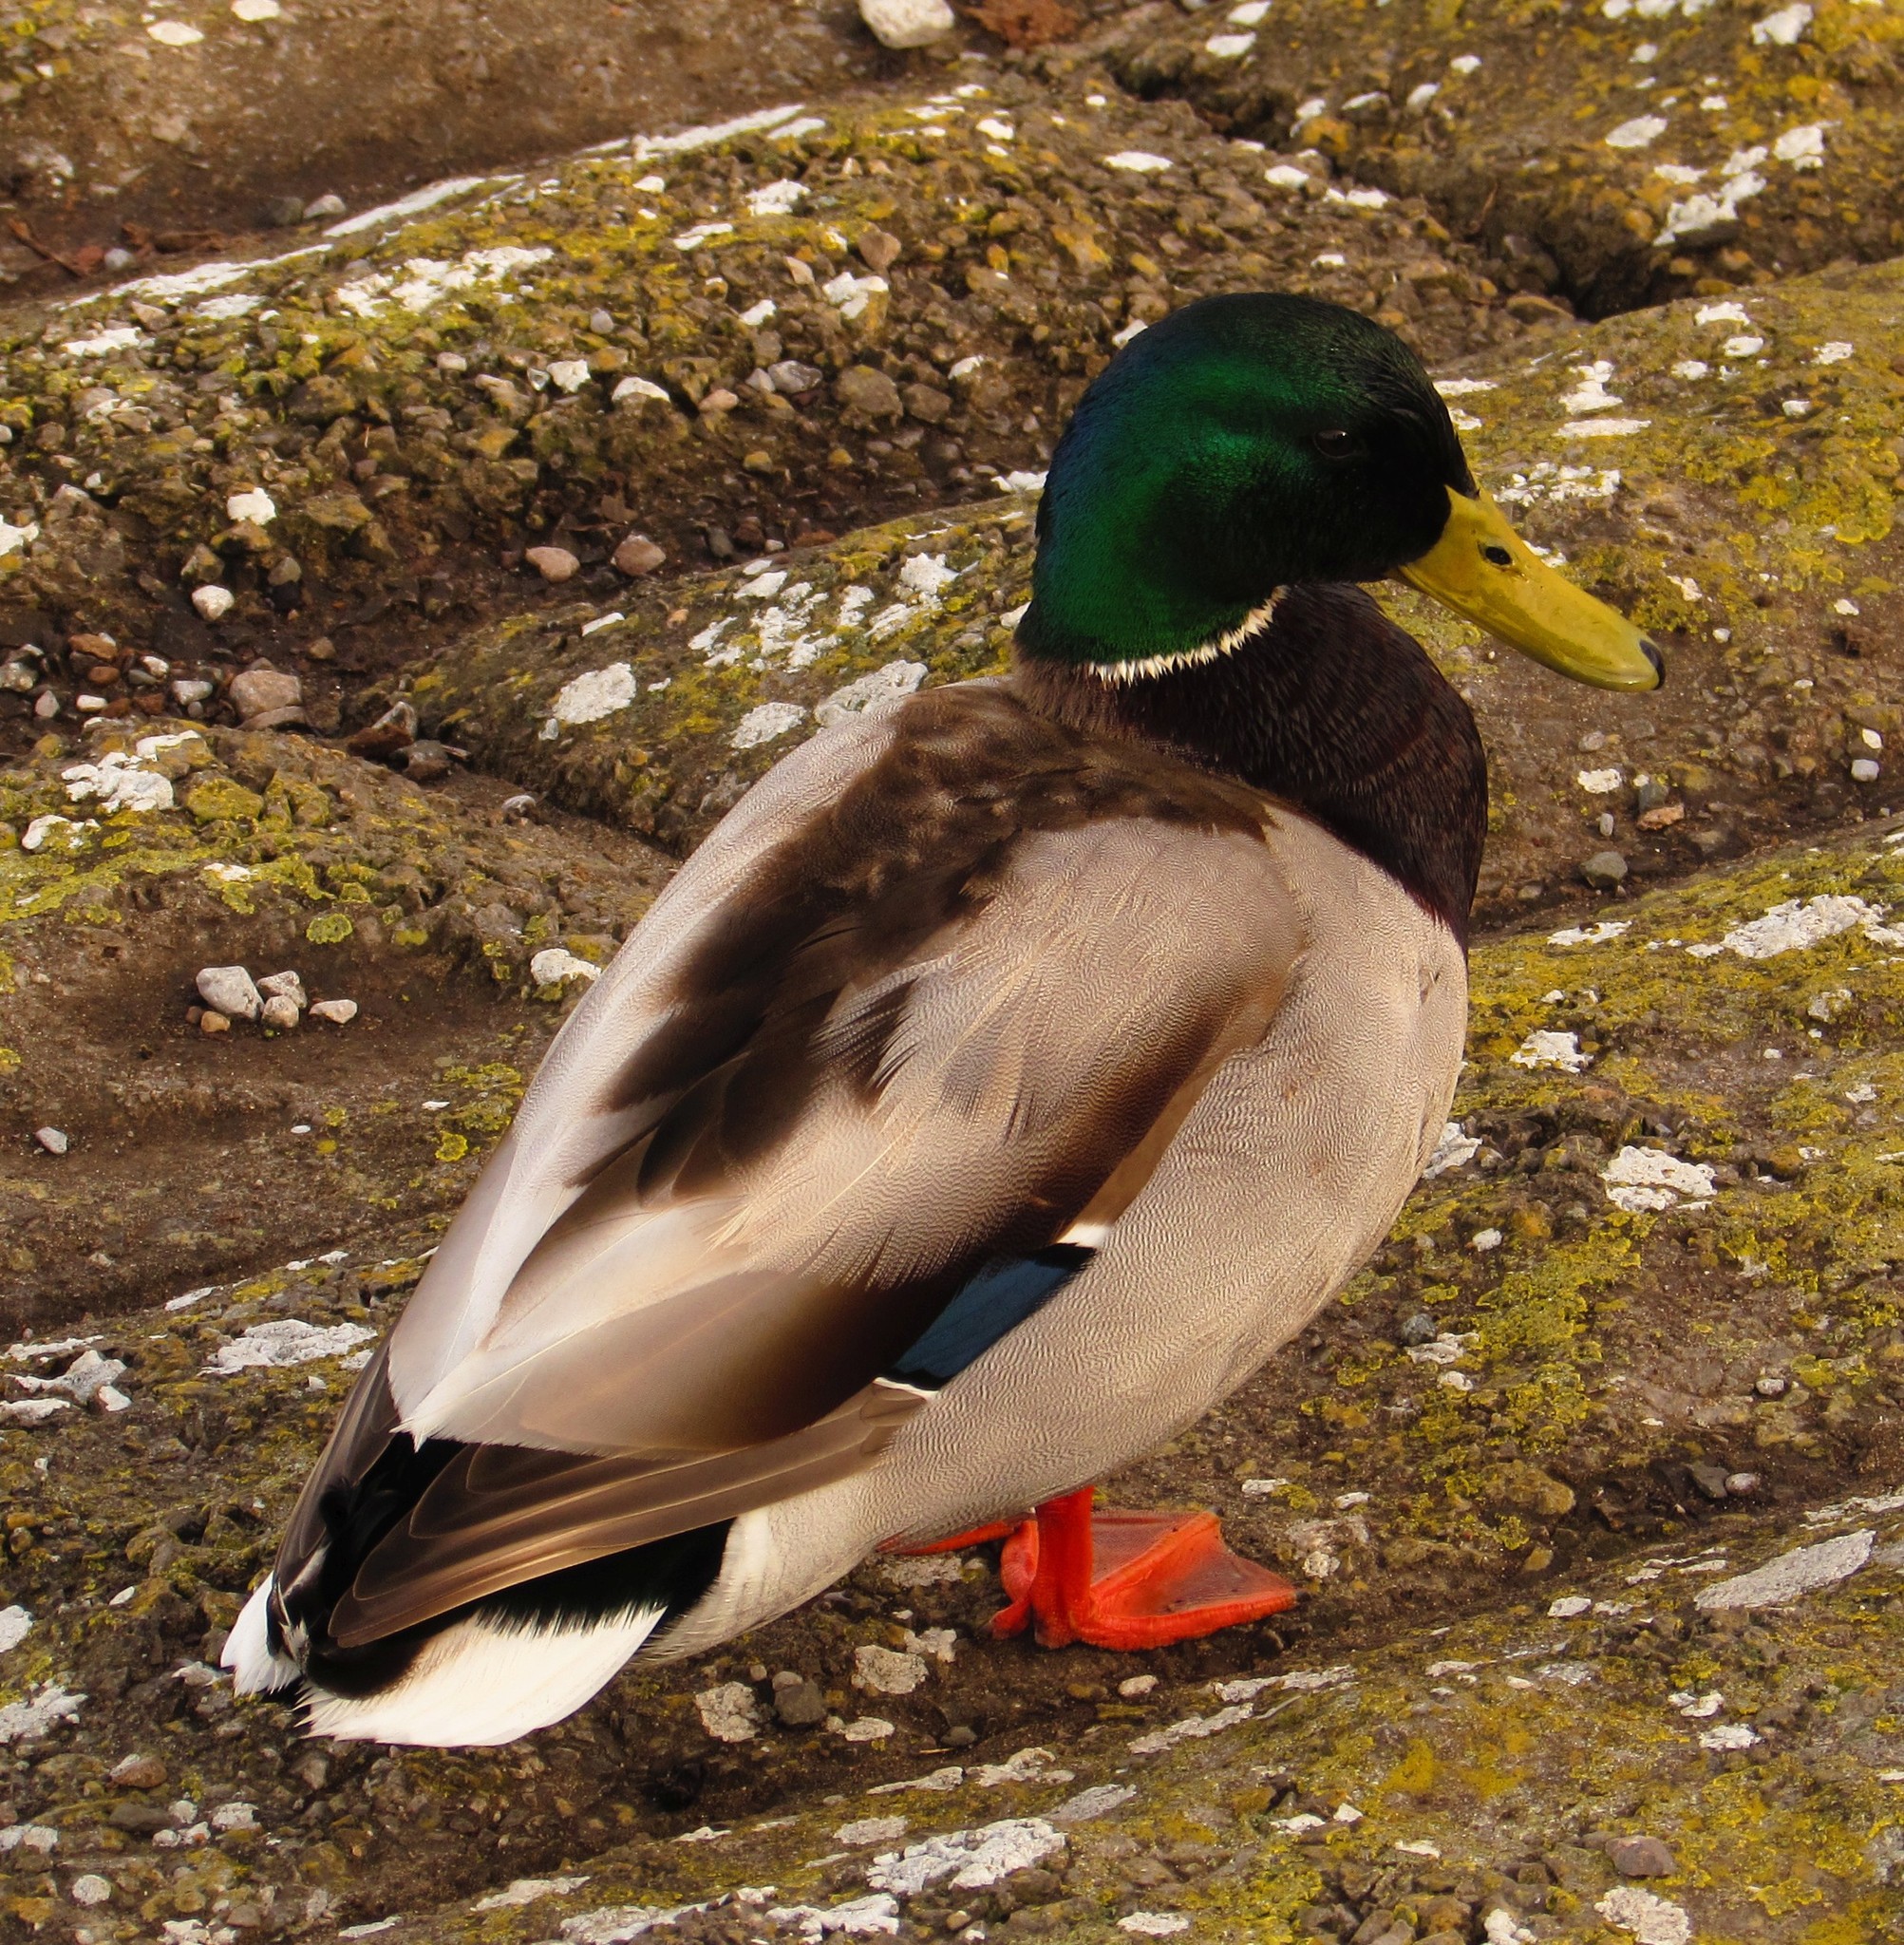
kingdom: Animalia
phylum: Chordata
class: Aves
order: Anseriformes
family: Anatidae
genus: Anas
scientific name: Anas platyrhynchos
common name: Mallard
